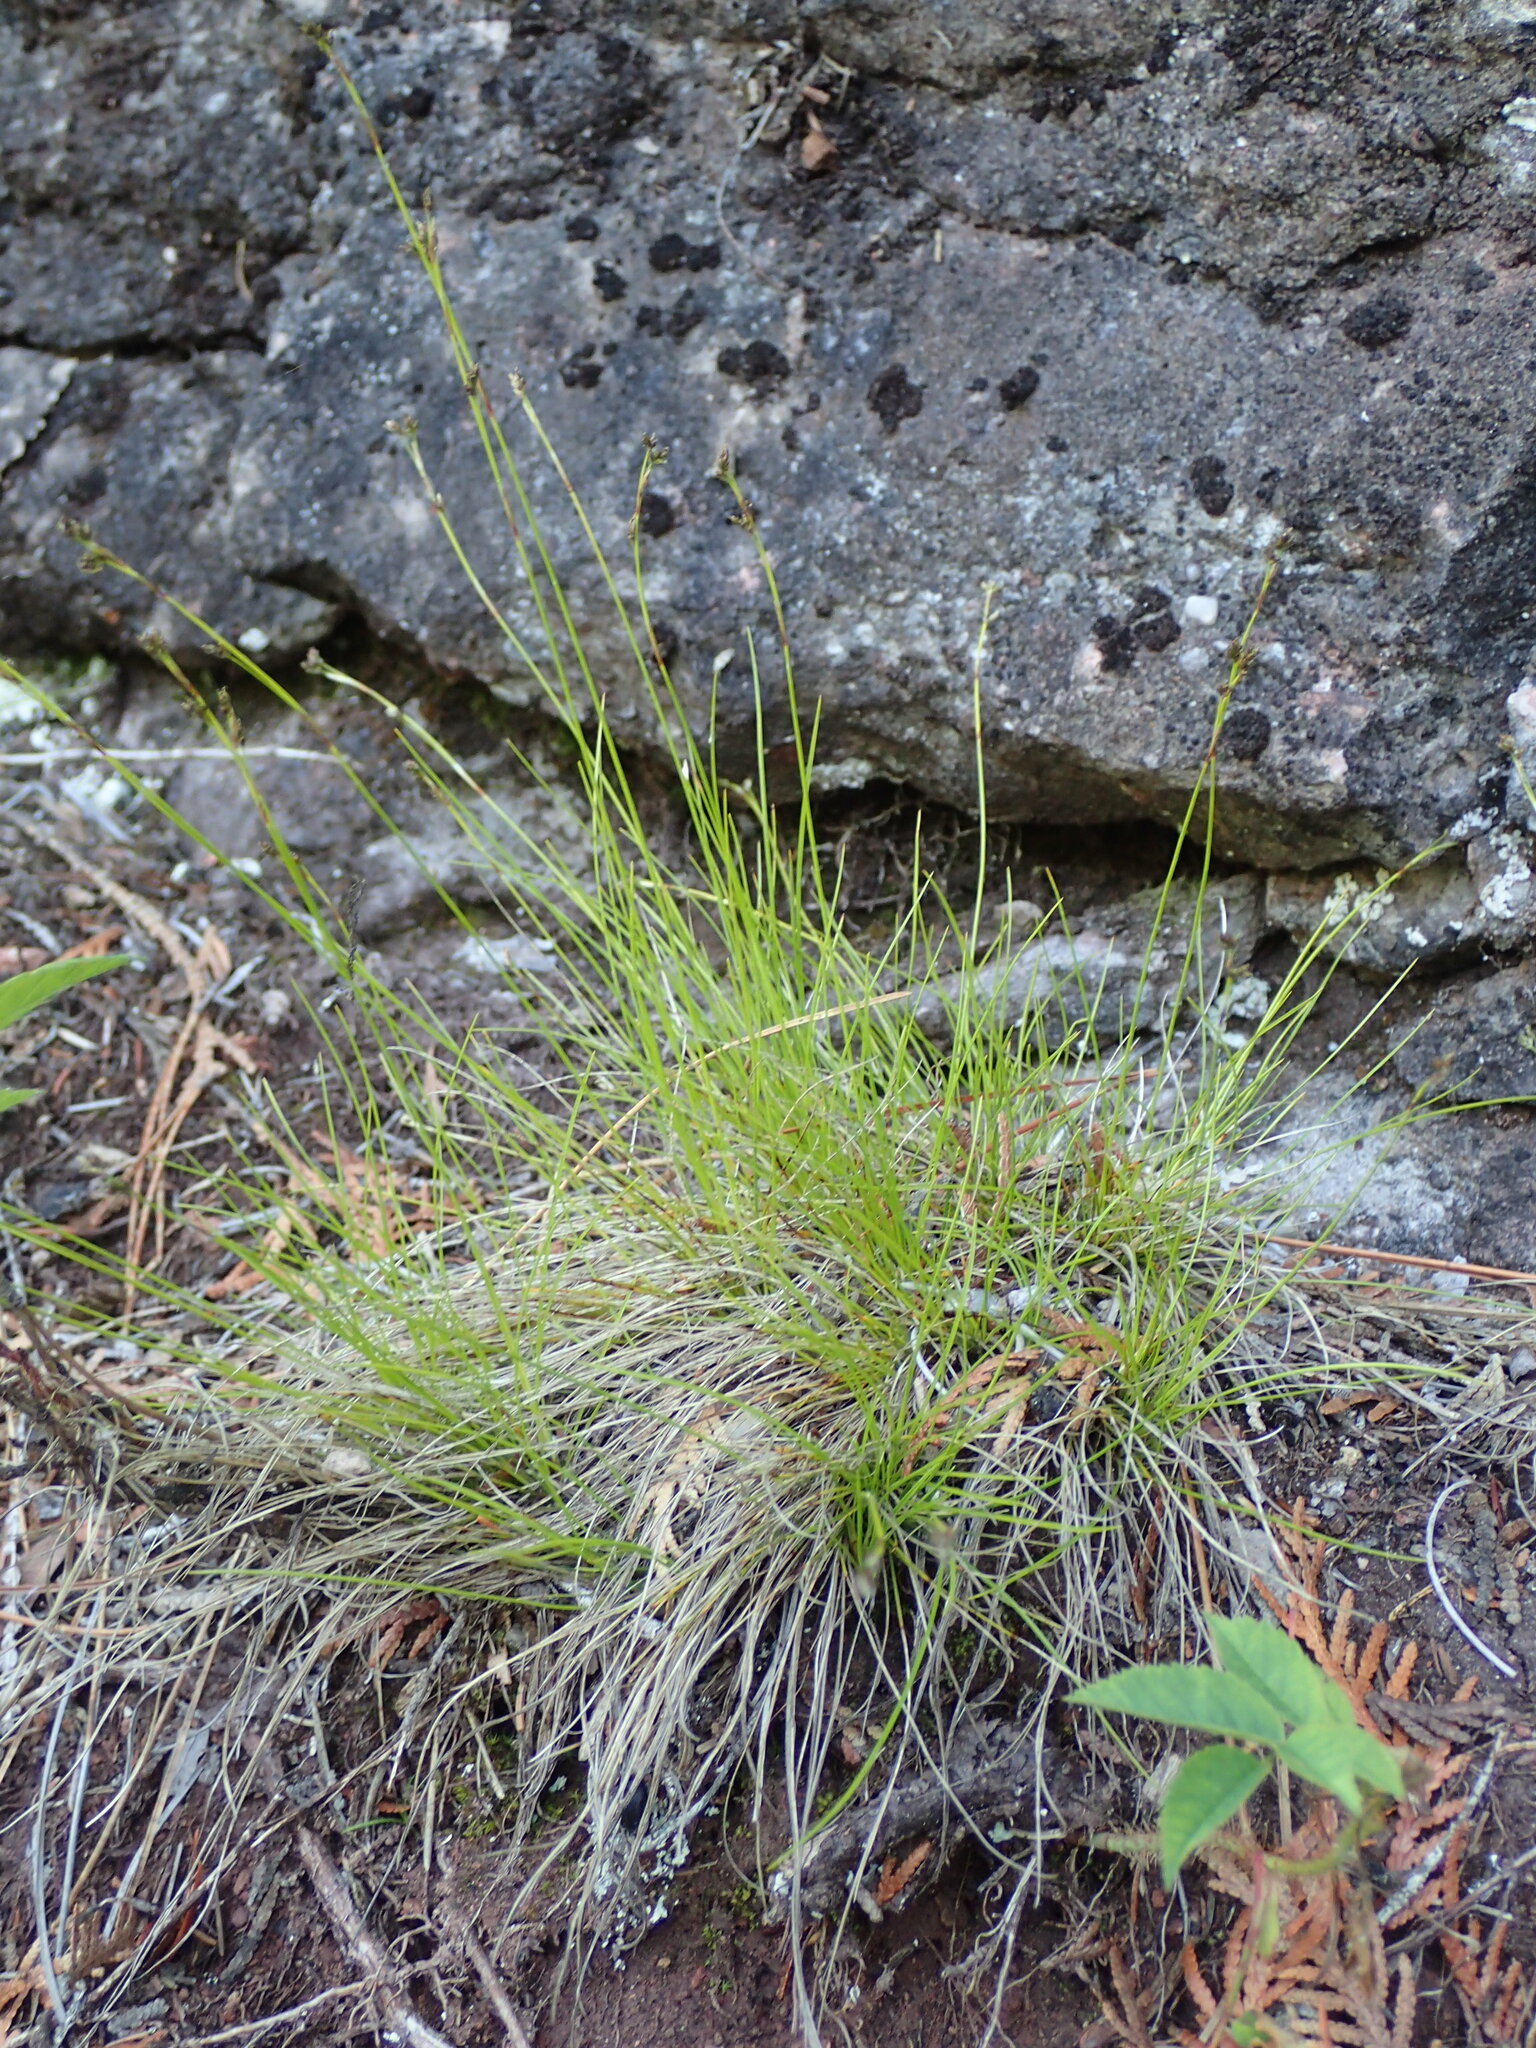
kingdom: Plantae
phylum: Tracheophyta
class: Liliopsida
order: Poales
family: Cyperaceae
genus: Carex
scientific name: Carex eburnea
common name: Bristle-leaved sedge
